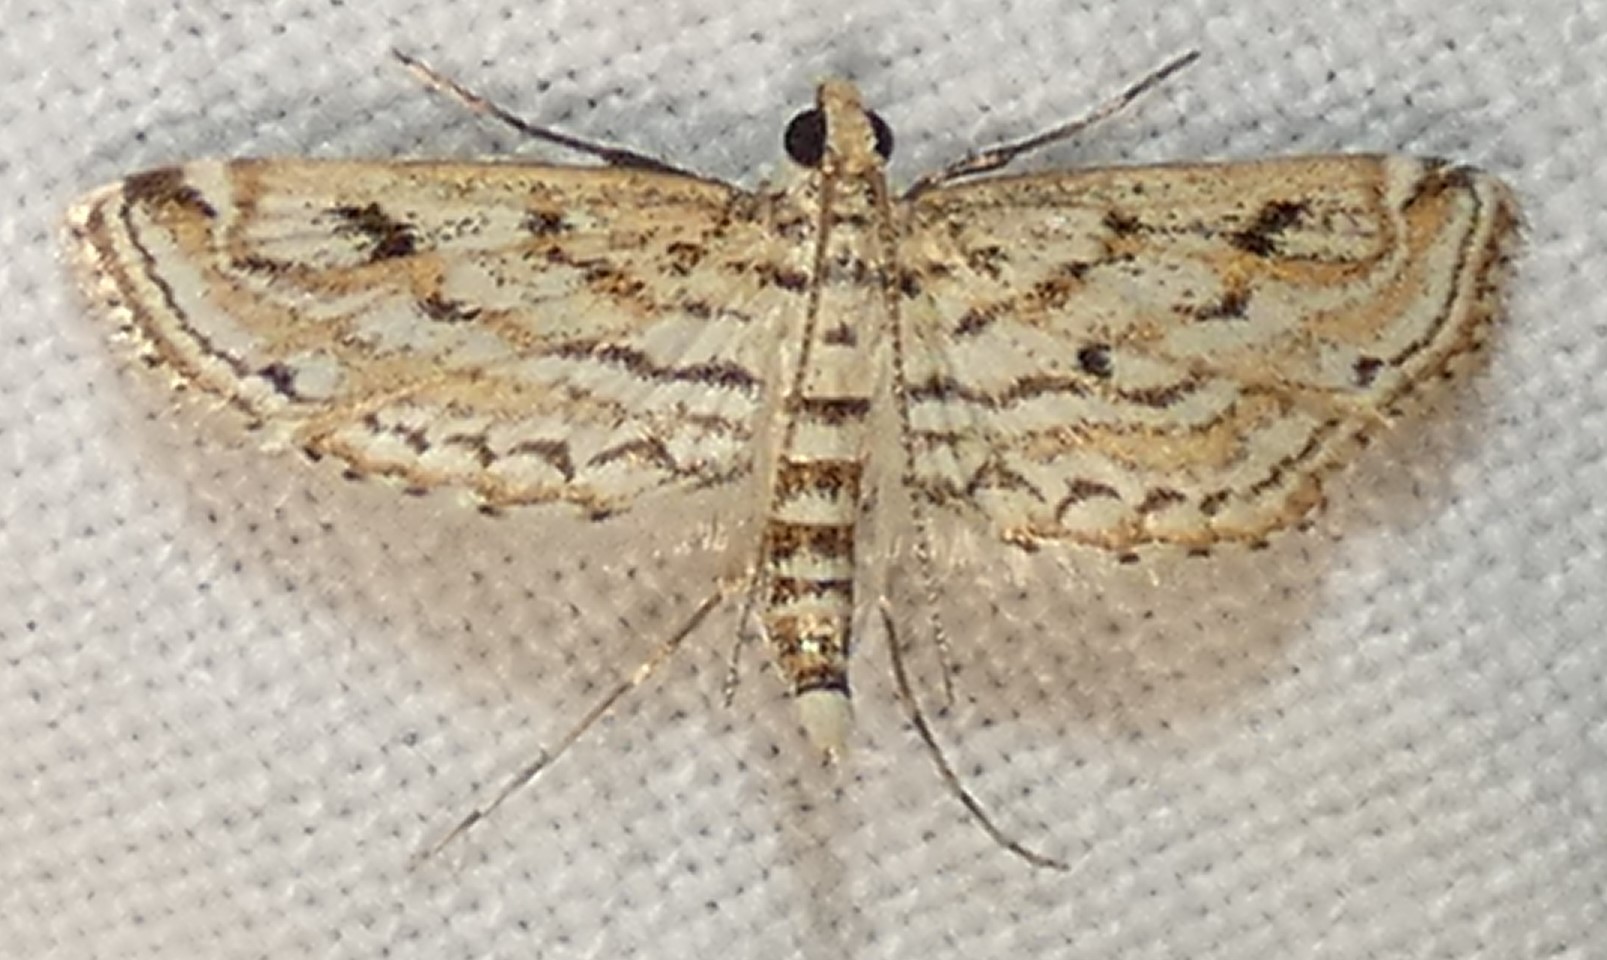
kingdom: Animalia
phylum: Arthropoda
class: Insecta
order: Lepidoptera
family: Crambidae
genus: Parapoynx
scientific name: Parapoynx allionealis
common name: Bladderwort casemaker
